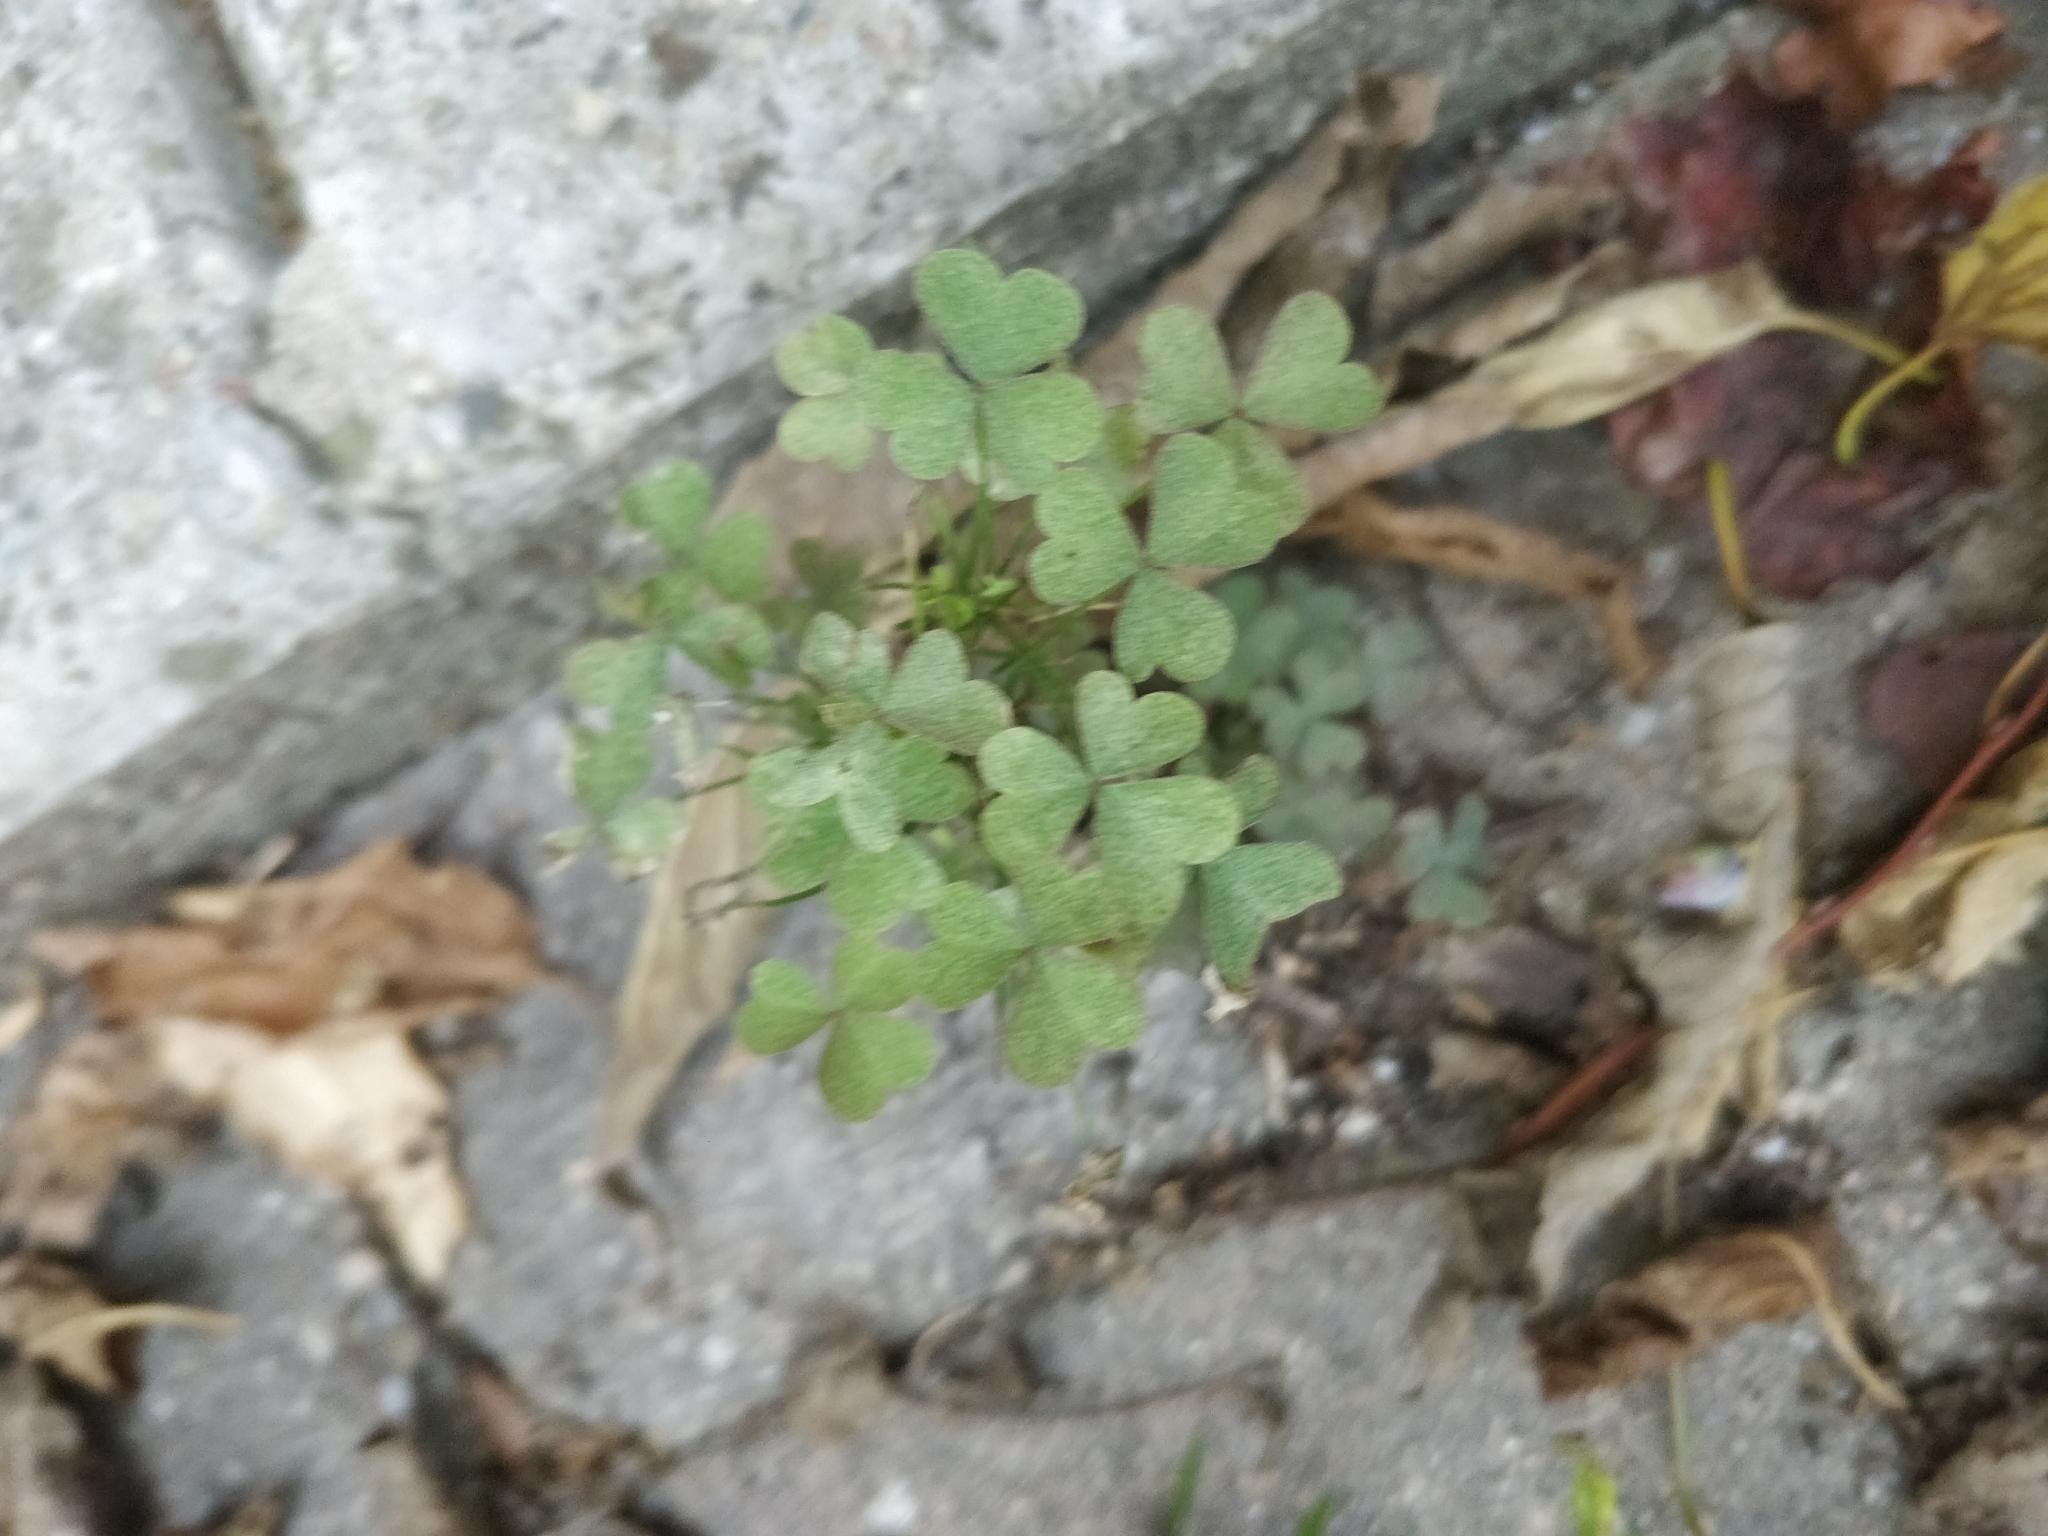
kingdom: Plantae
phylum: Tracheophyta
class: Magnoliopsida
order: Oxalidales
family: Oxalidaceae
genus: Oxalis
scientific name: Oxalis corniculata
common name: Procumbent yellow-sorrel
